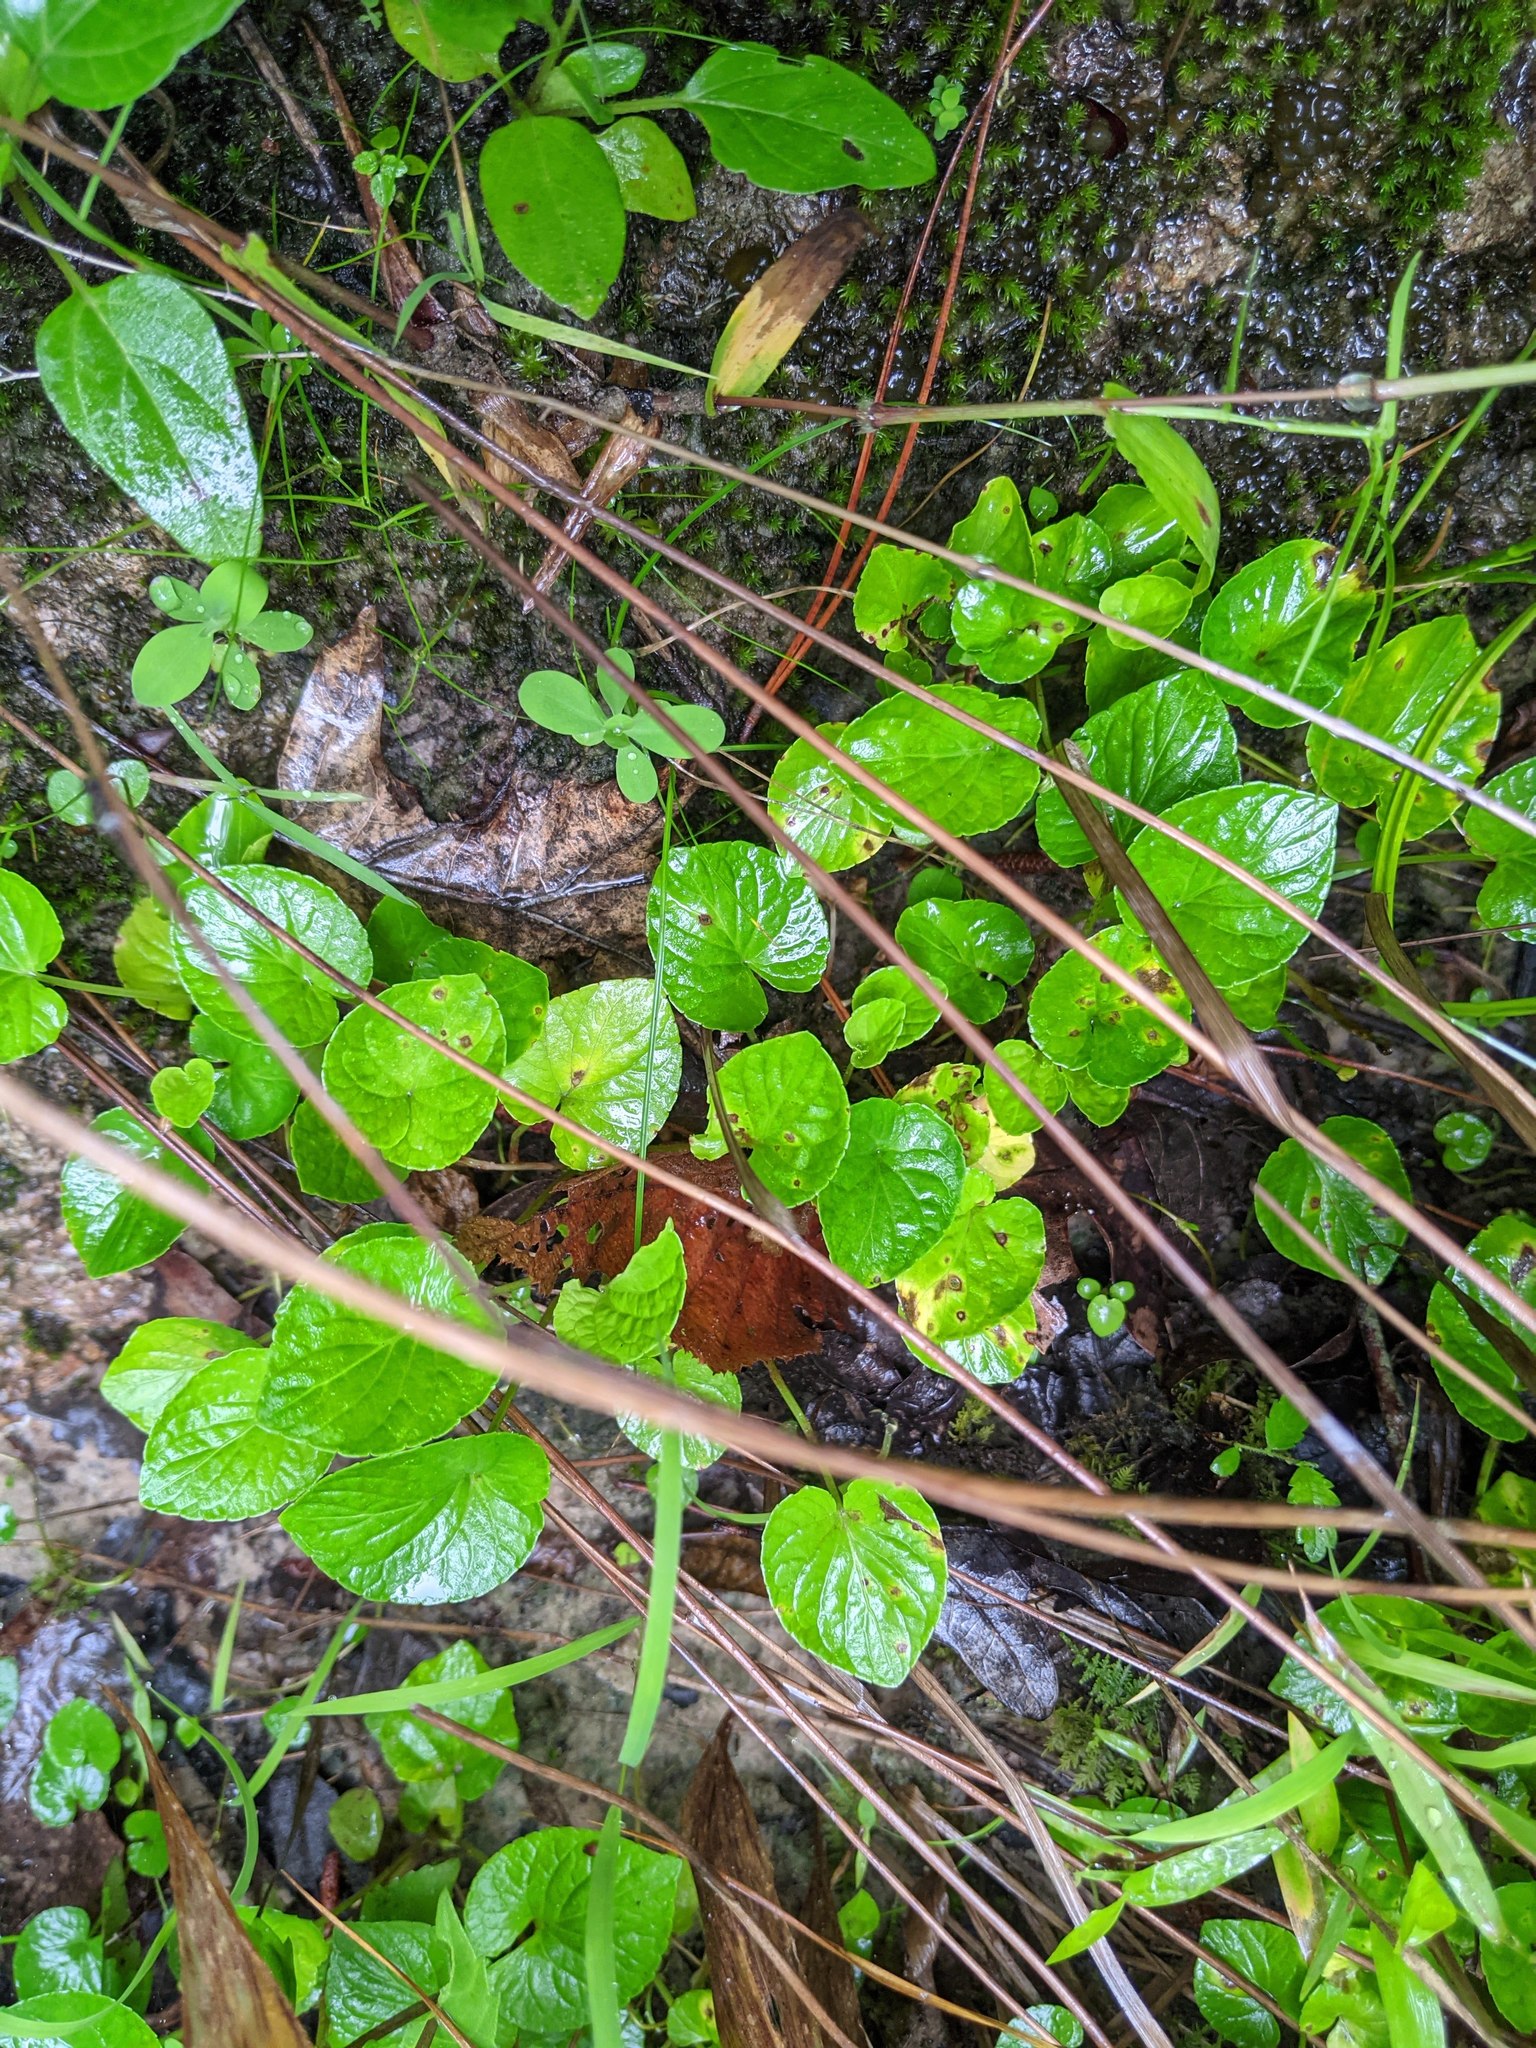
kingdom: Plantae
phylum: Tracheophyta
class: Magnoliopsida
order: Malpighiales
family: Violaceae
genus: Viola
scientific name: Viola minuscula
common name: Northern white violet
